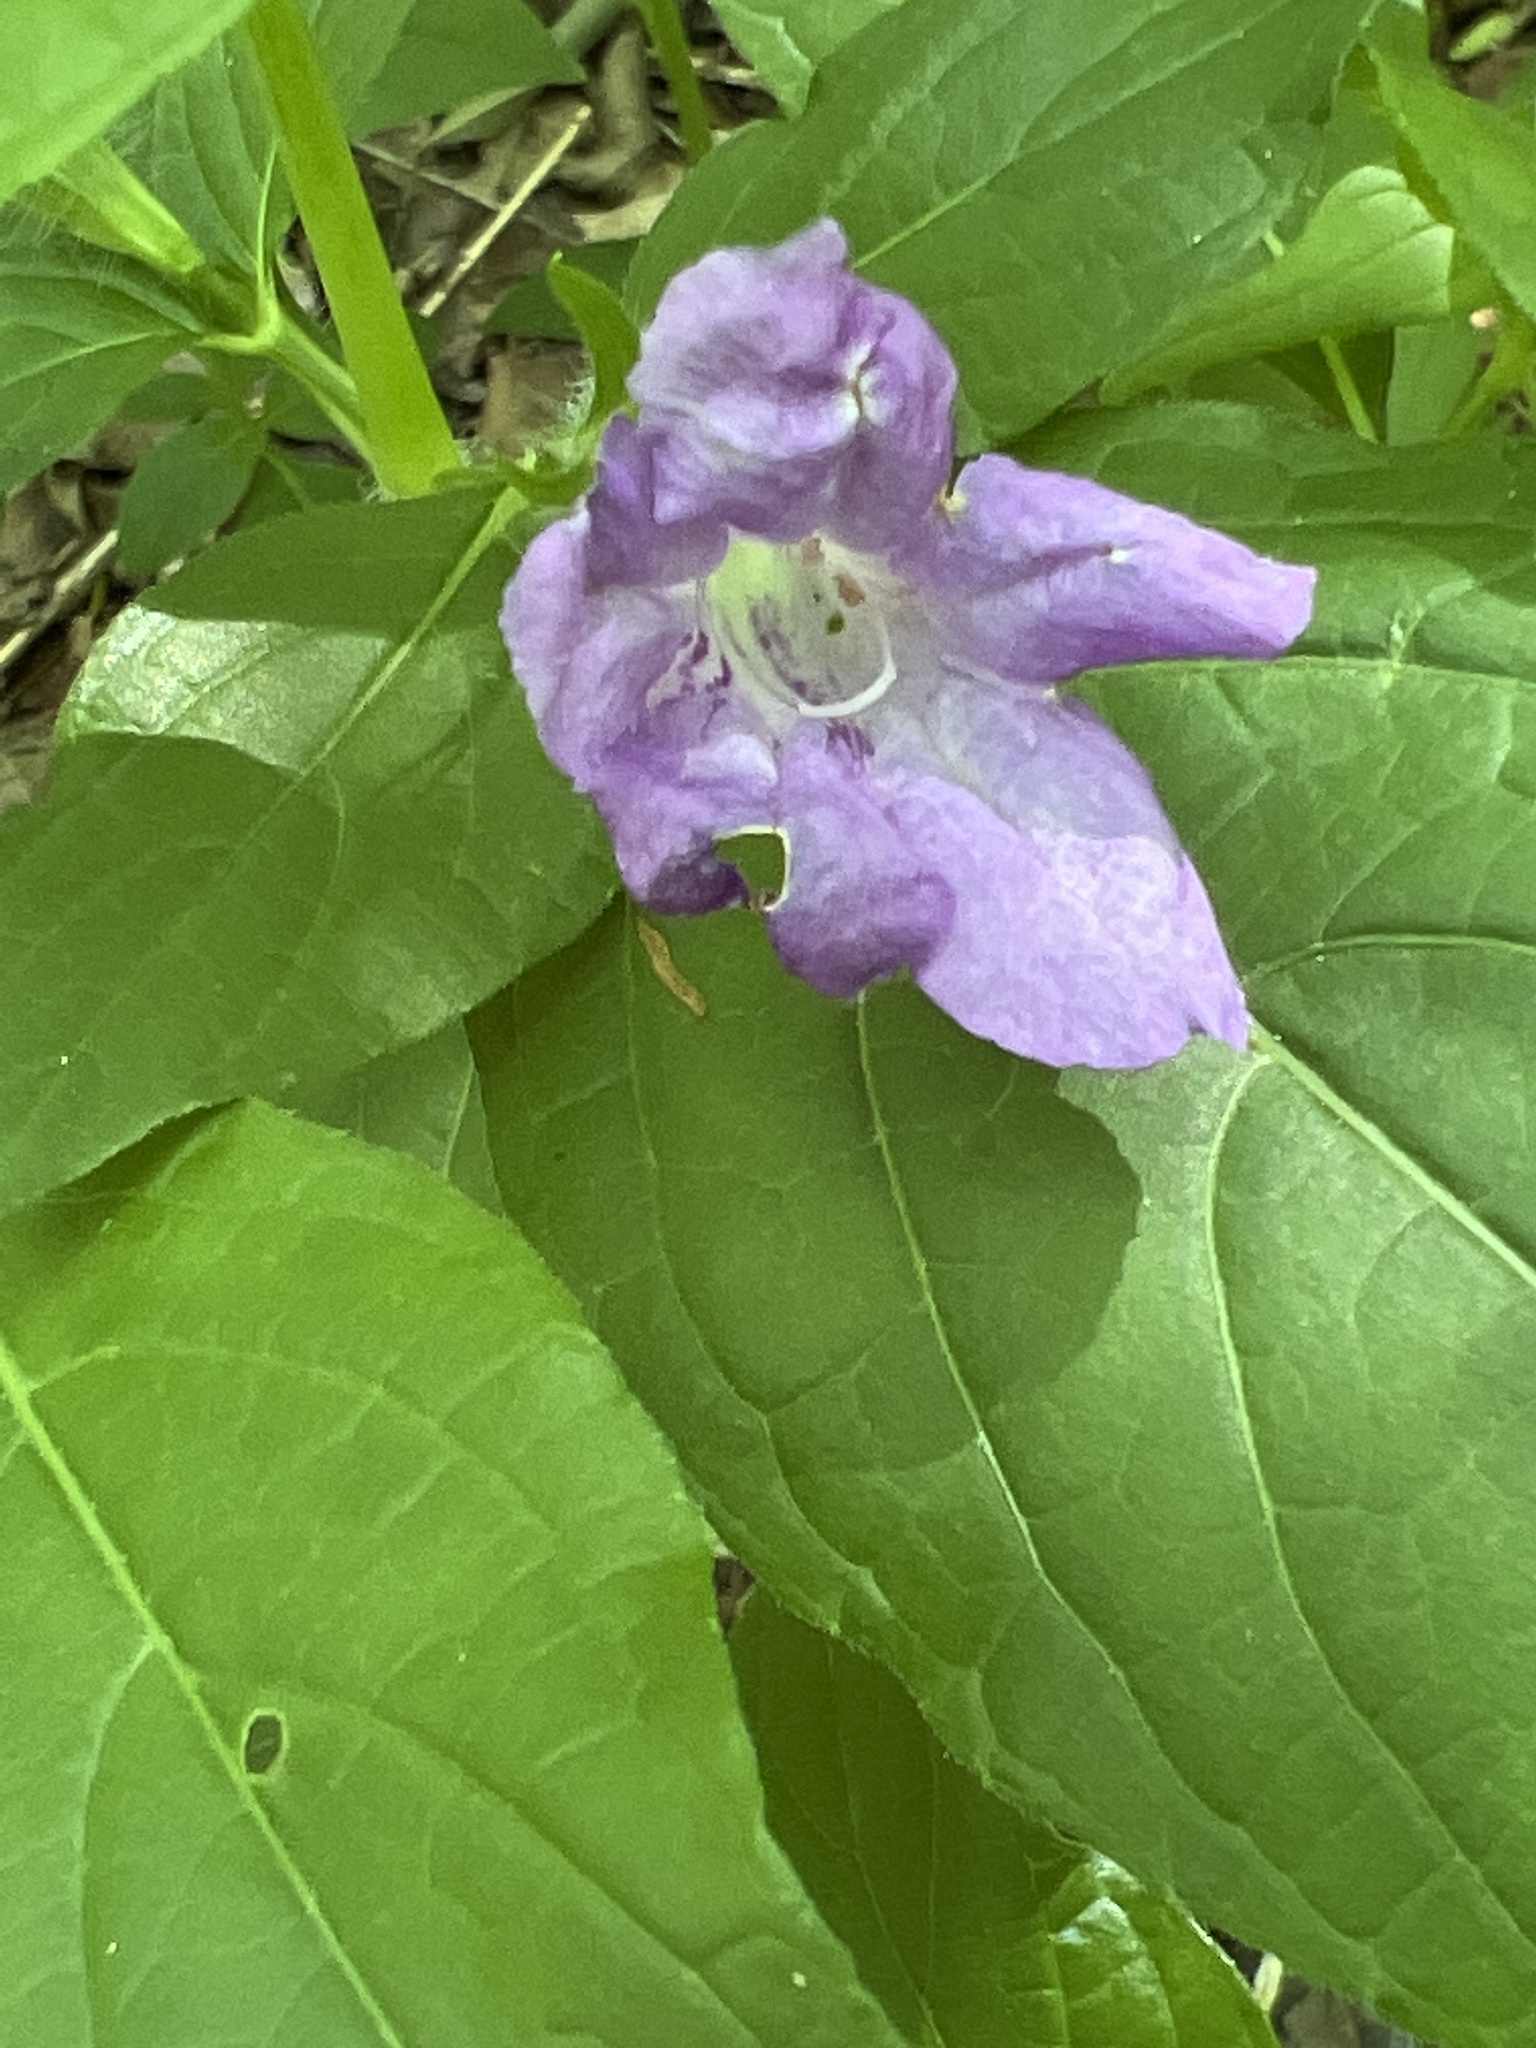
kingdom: Plantae
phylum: Tracheophyta
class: Magnoliopsida
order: Lamiales
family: Acanthaceae
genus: Ruellia
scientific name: Ruellia strepens
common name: Limestone wild petunia
